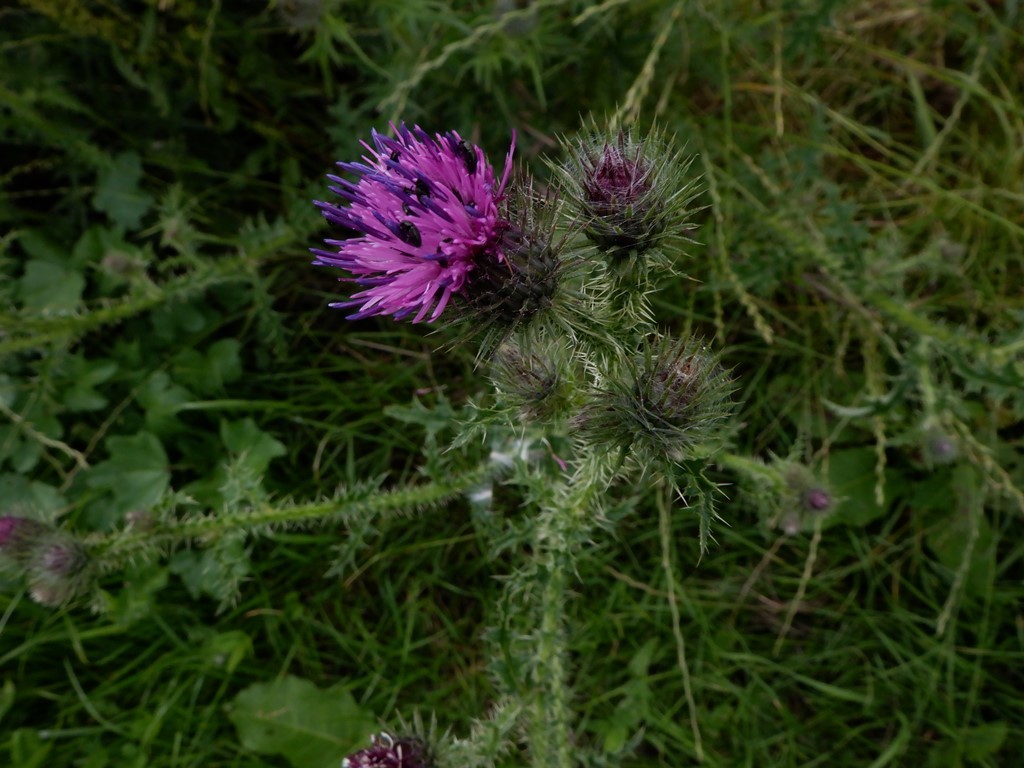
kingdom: Plantae
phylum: Tracheophyta
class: Magnoliopsida
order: Asterales
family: Asteraceae
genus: Carduus
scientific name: Carduus crispus
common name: Welted thistle
